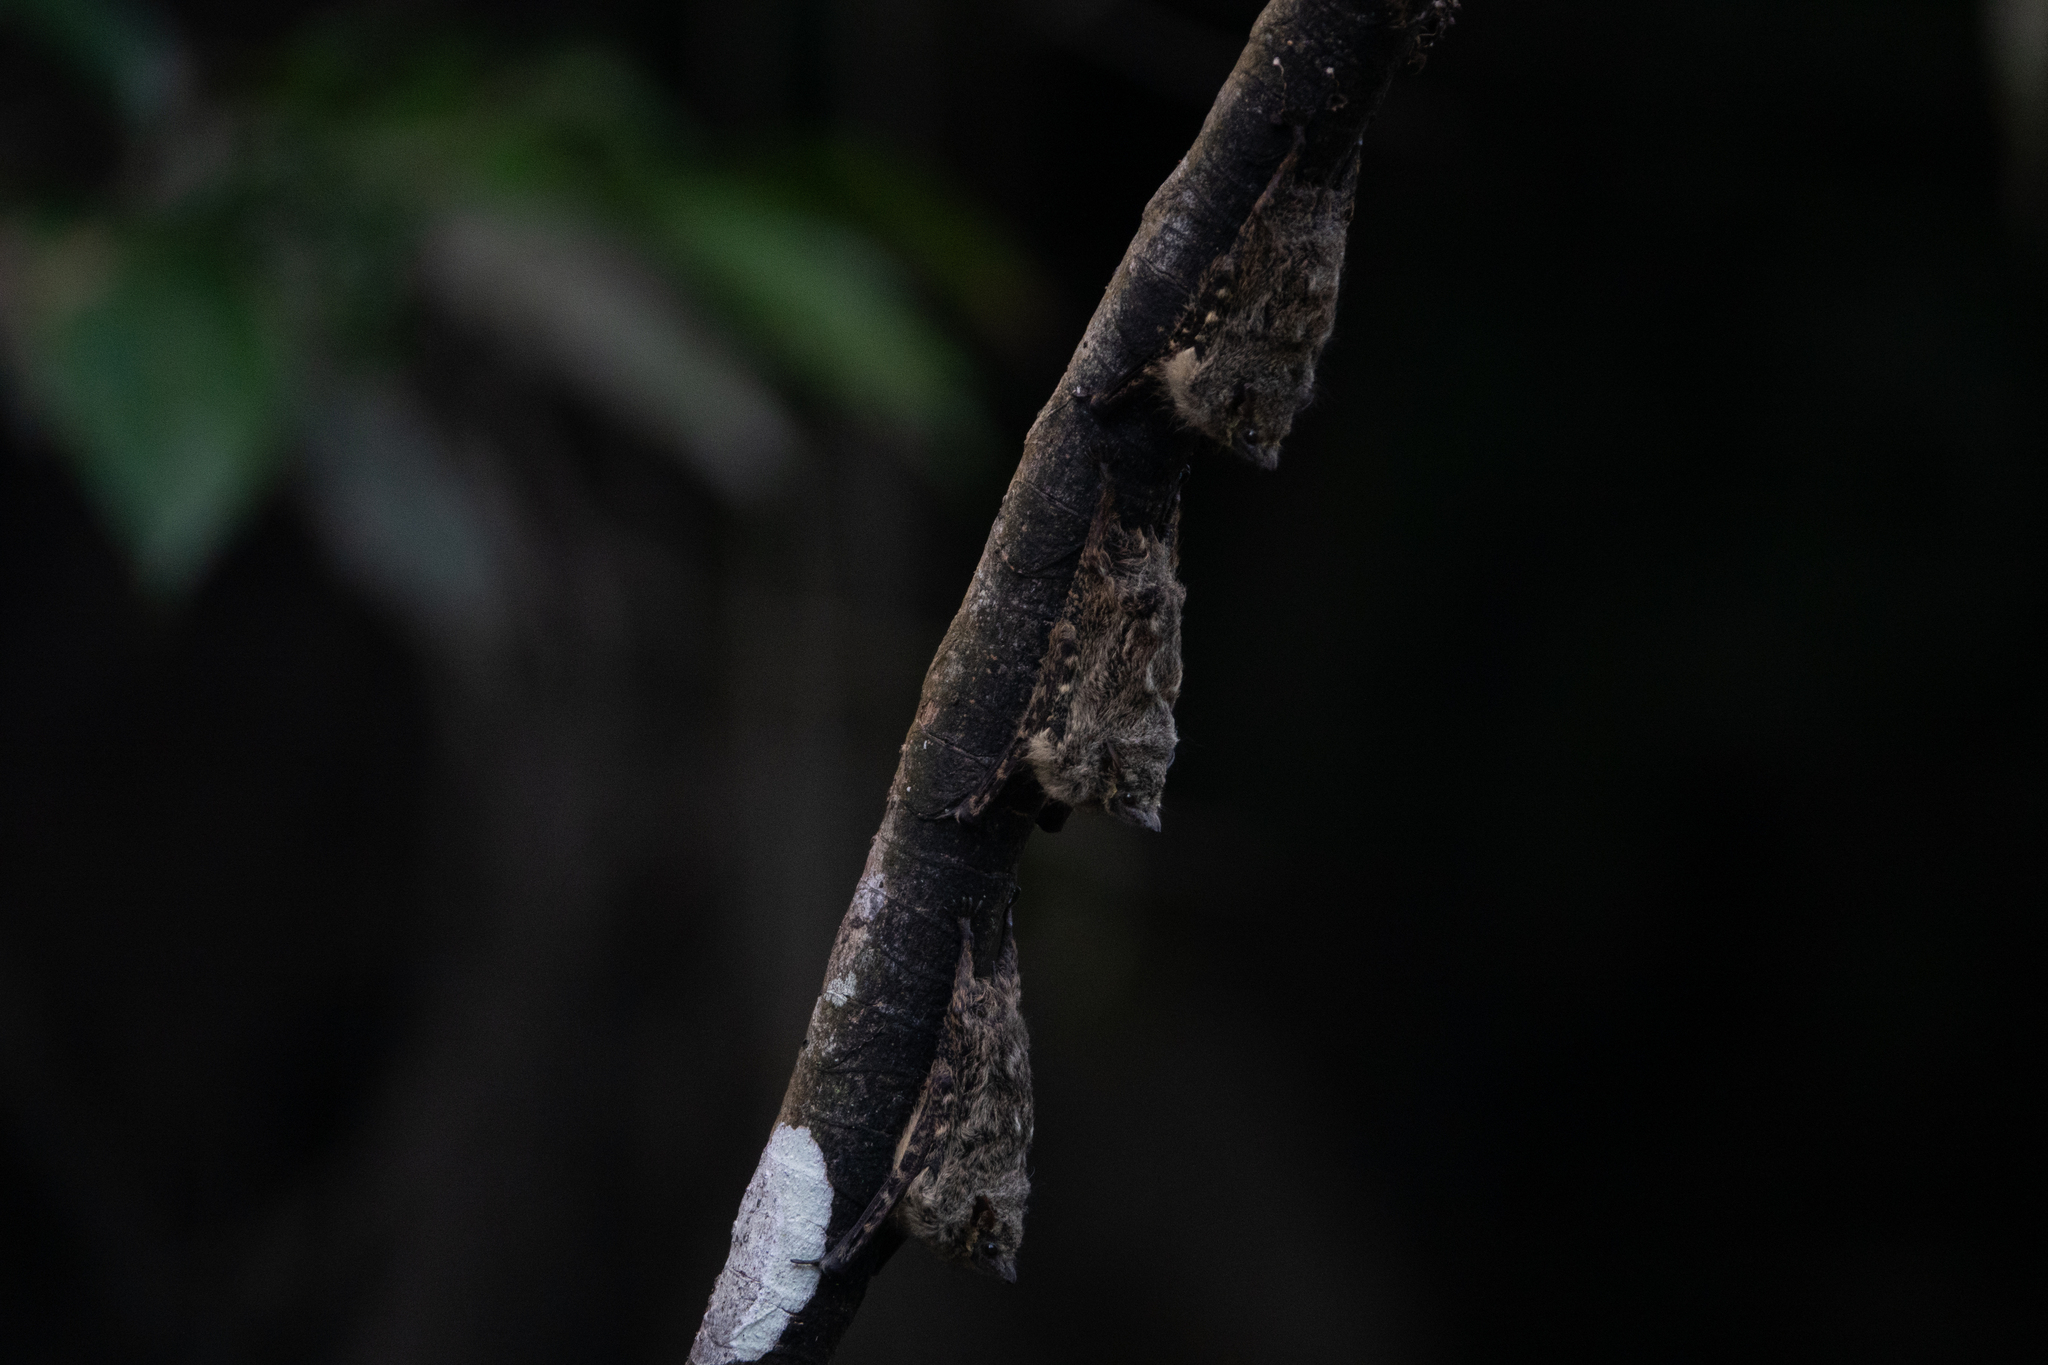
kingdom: Animalia
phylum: Chordata
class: Mammalia
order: Chiroptera
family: Emballonuridae
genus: Rhynchonycteris
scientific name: Rhynchonycteris naso
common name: Proboscis bat
